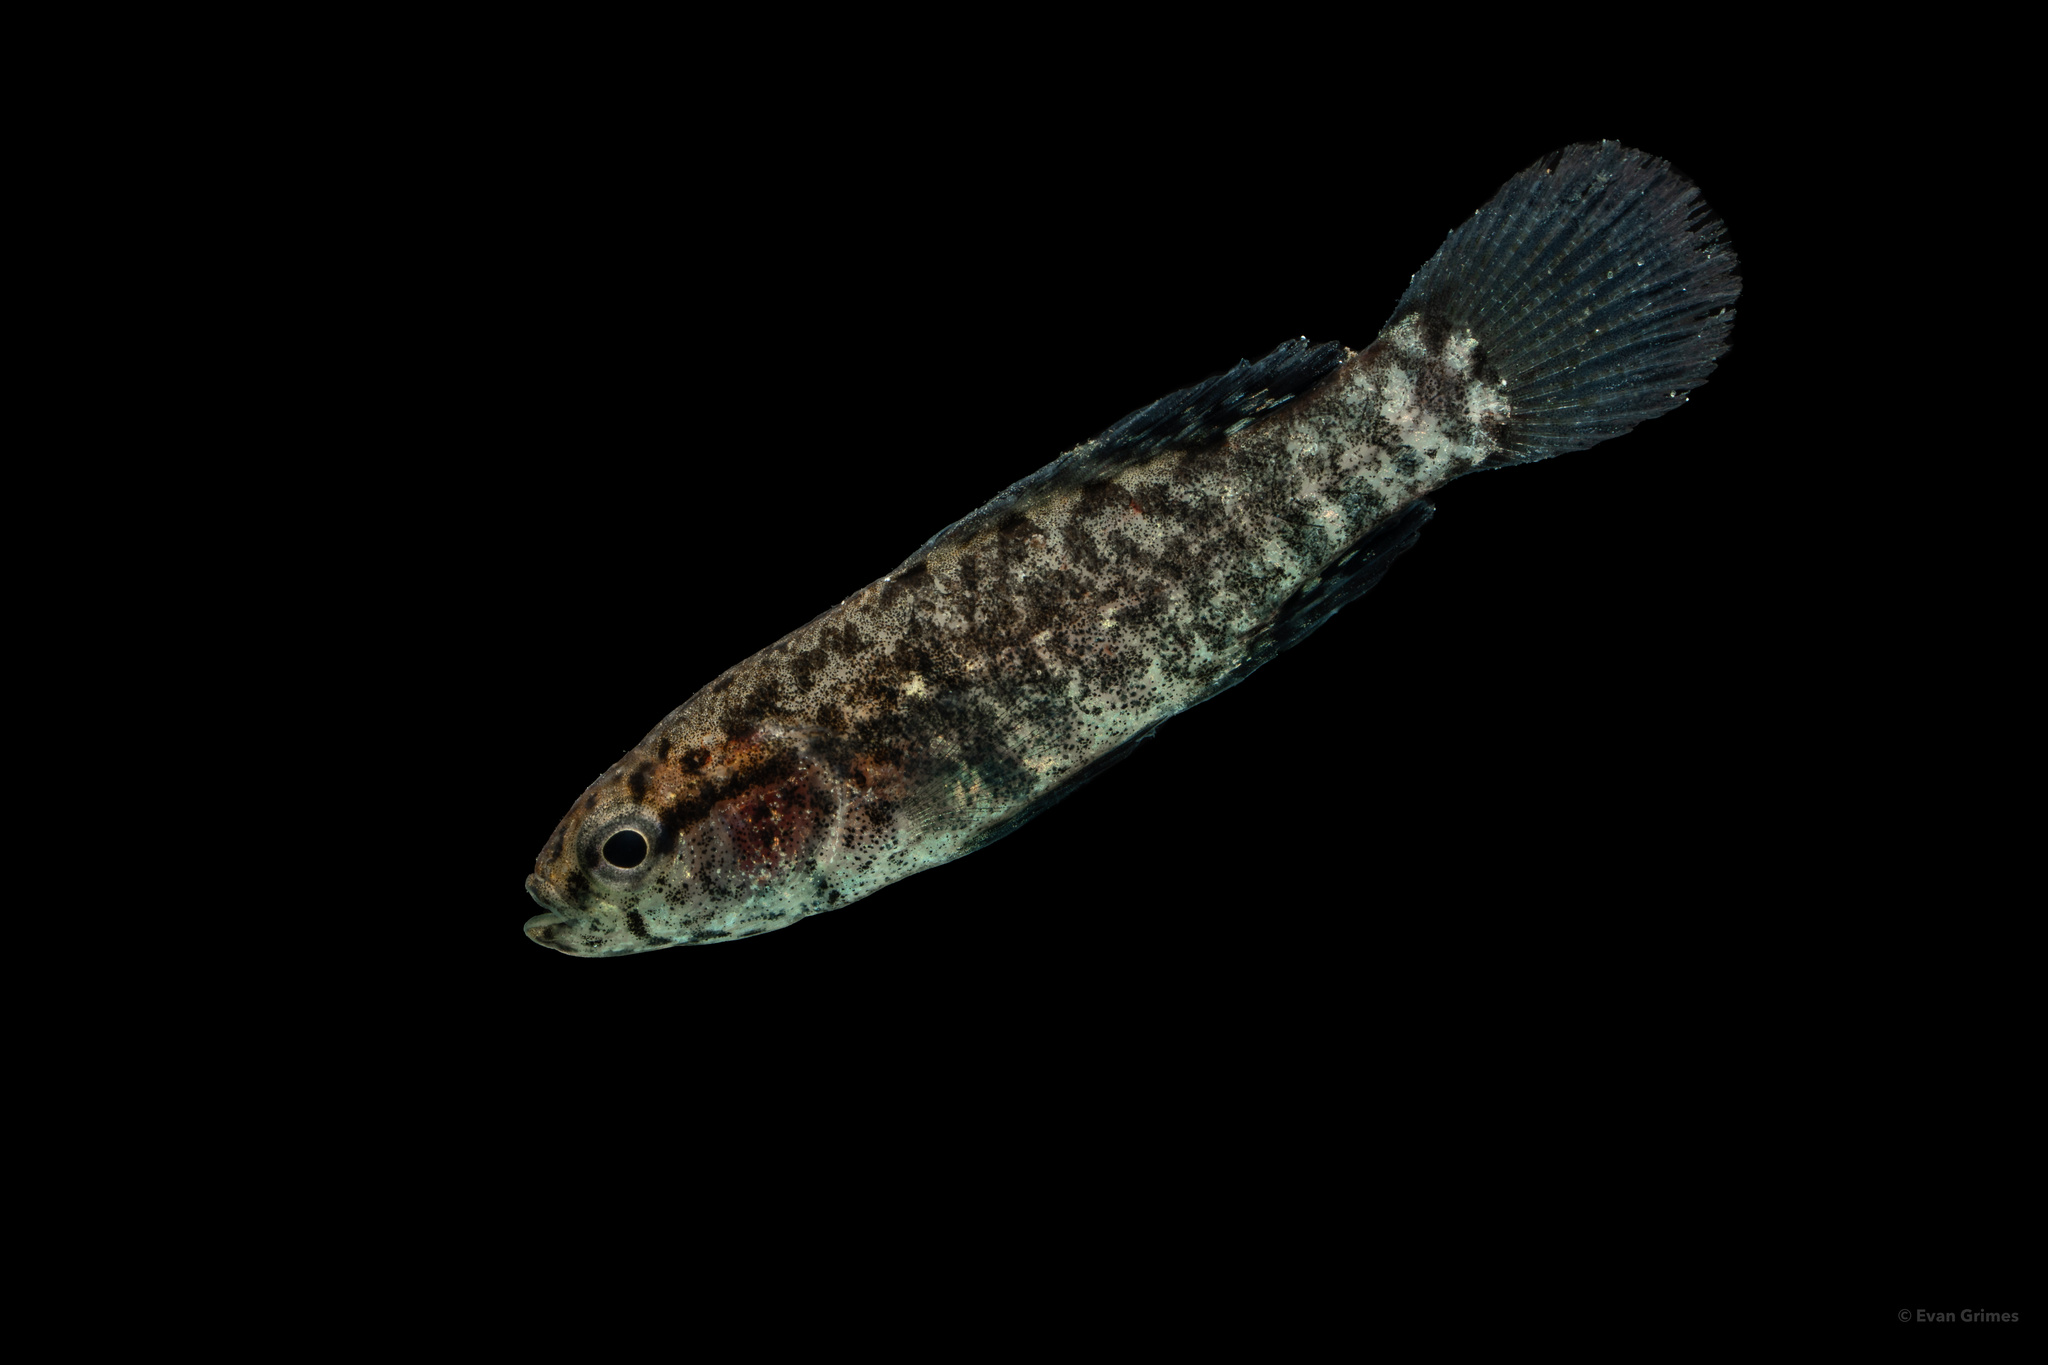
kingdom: Animalia
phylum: Chordata
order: Perciformes
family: Elassomatidae
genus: Elassoma
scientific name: Elassoma zonatum
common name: Banded pygmy sunfish
